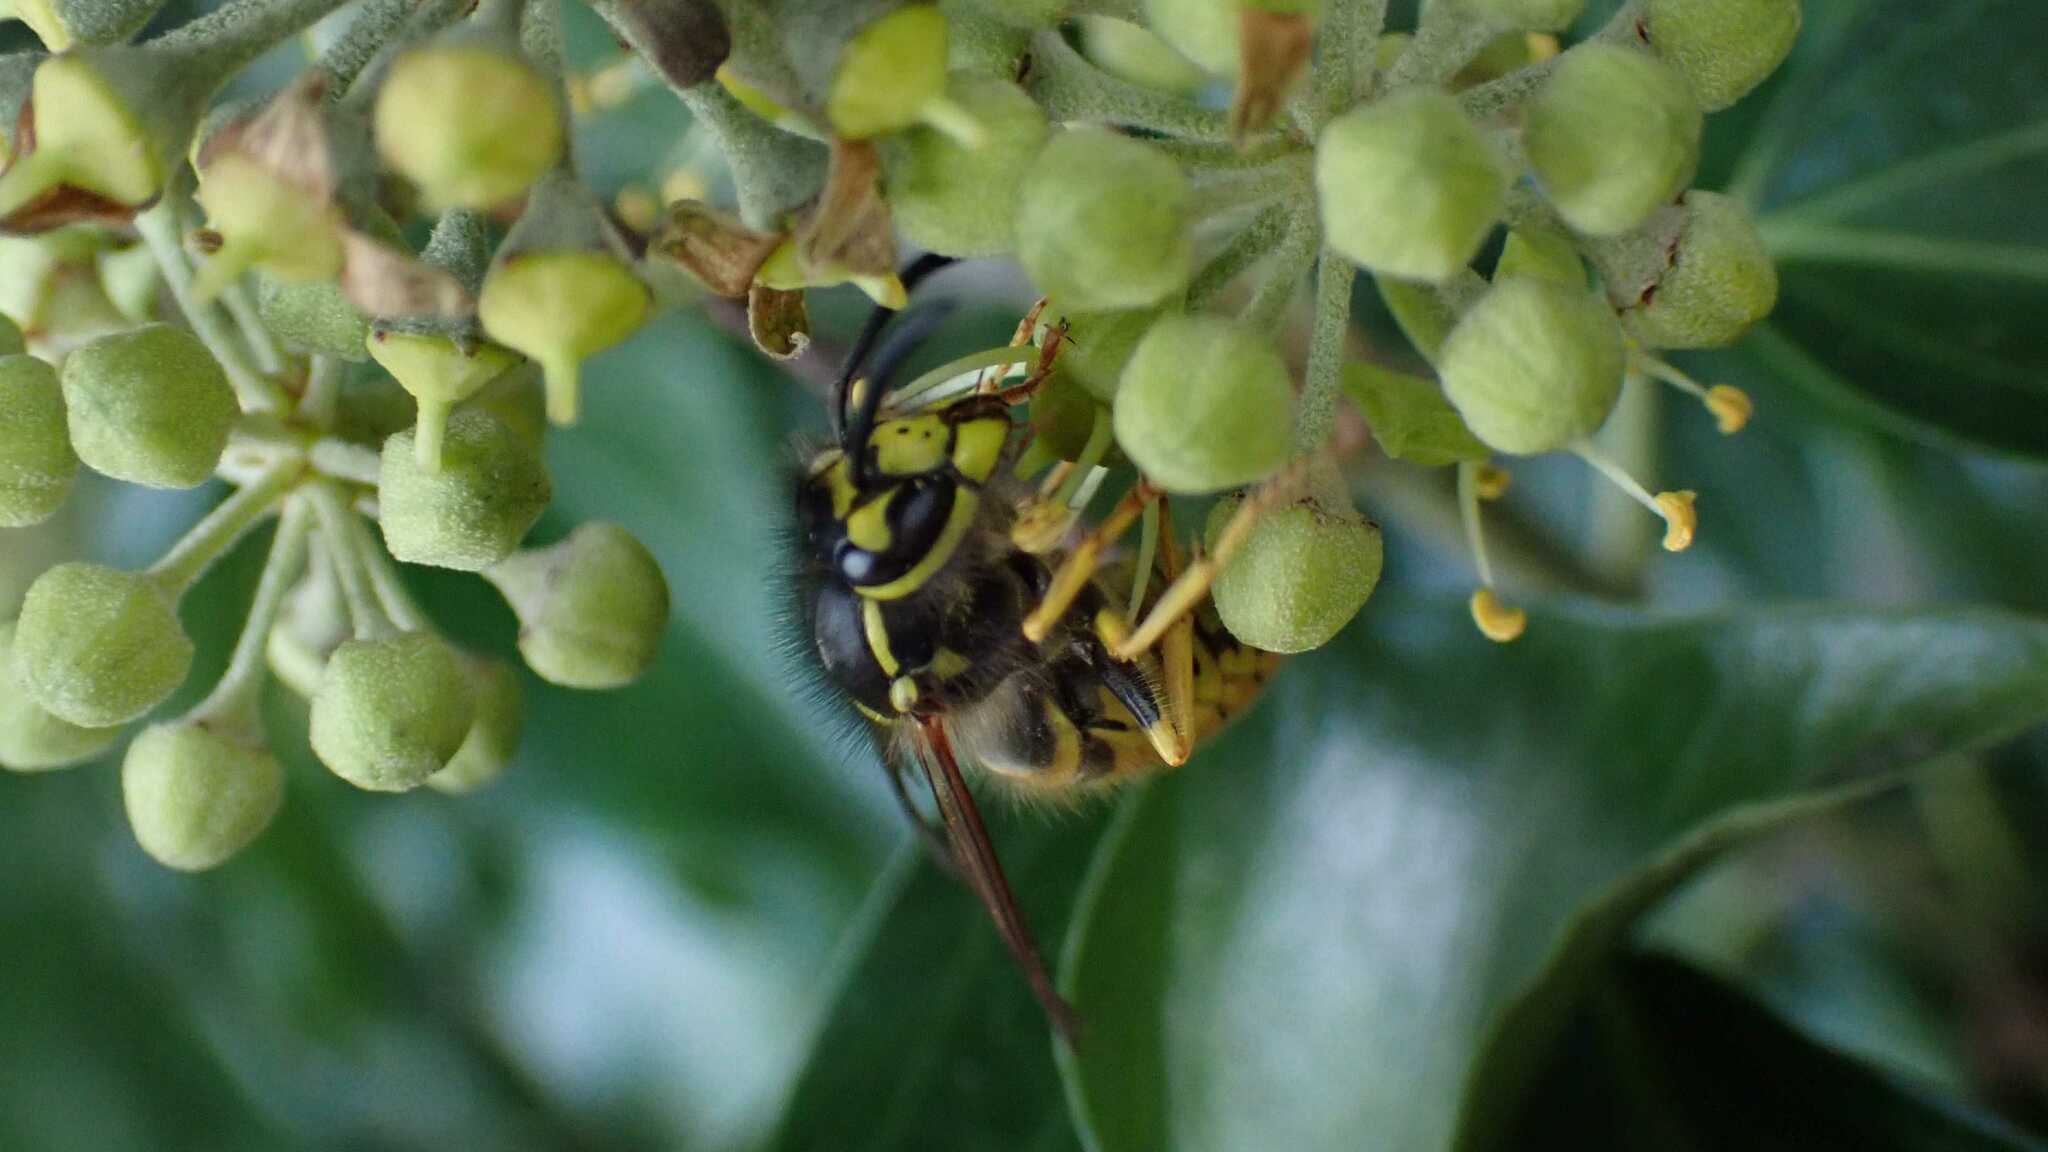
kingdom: Animalia
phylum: Arthropoda
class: Insecta
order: Hymenoptera
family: Vespidae
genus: Vespula
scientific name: Vespula germanica
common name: German wasp
